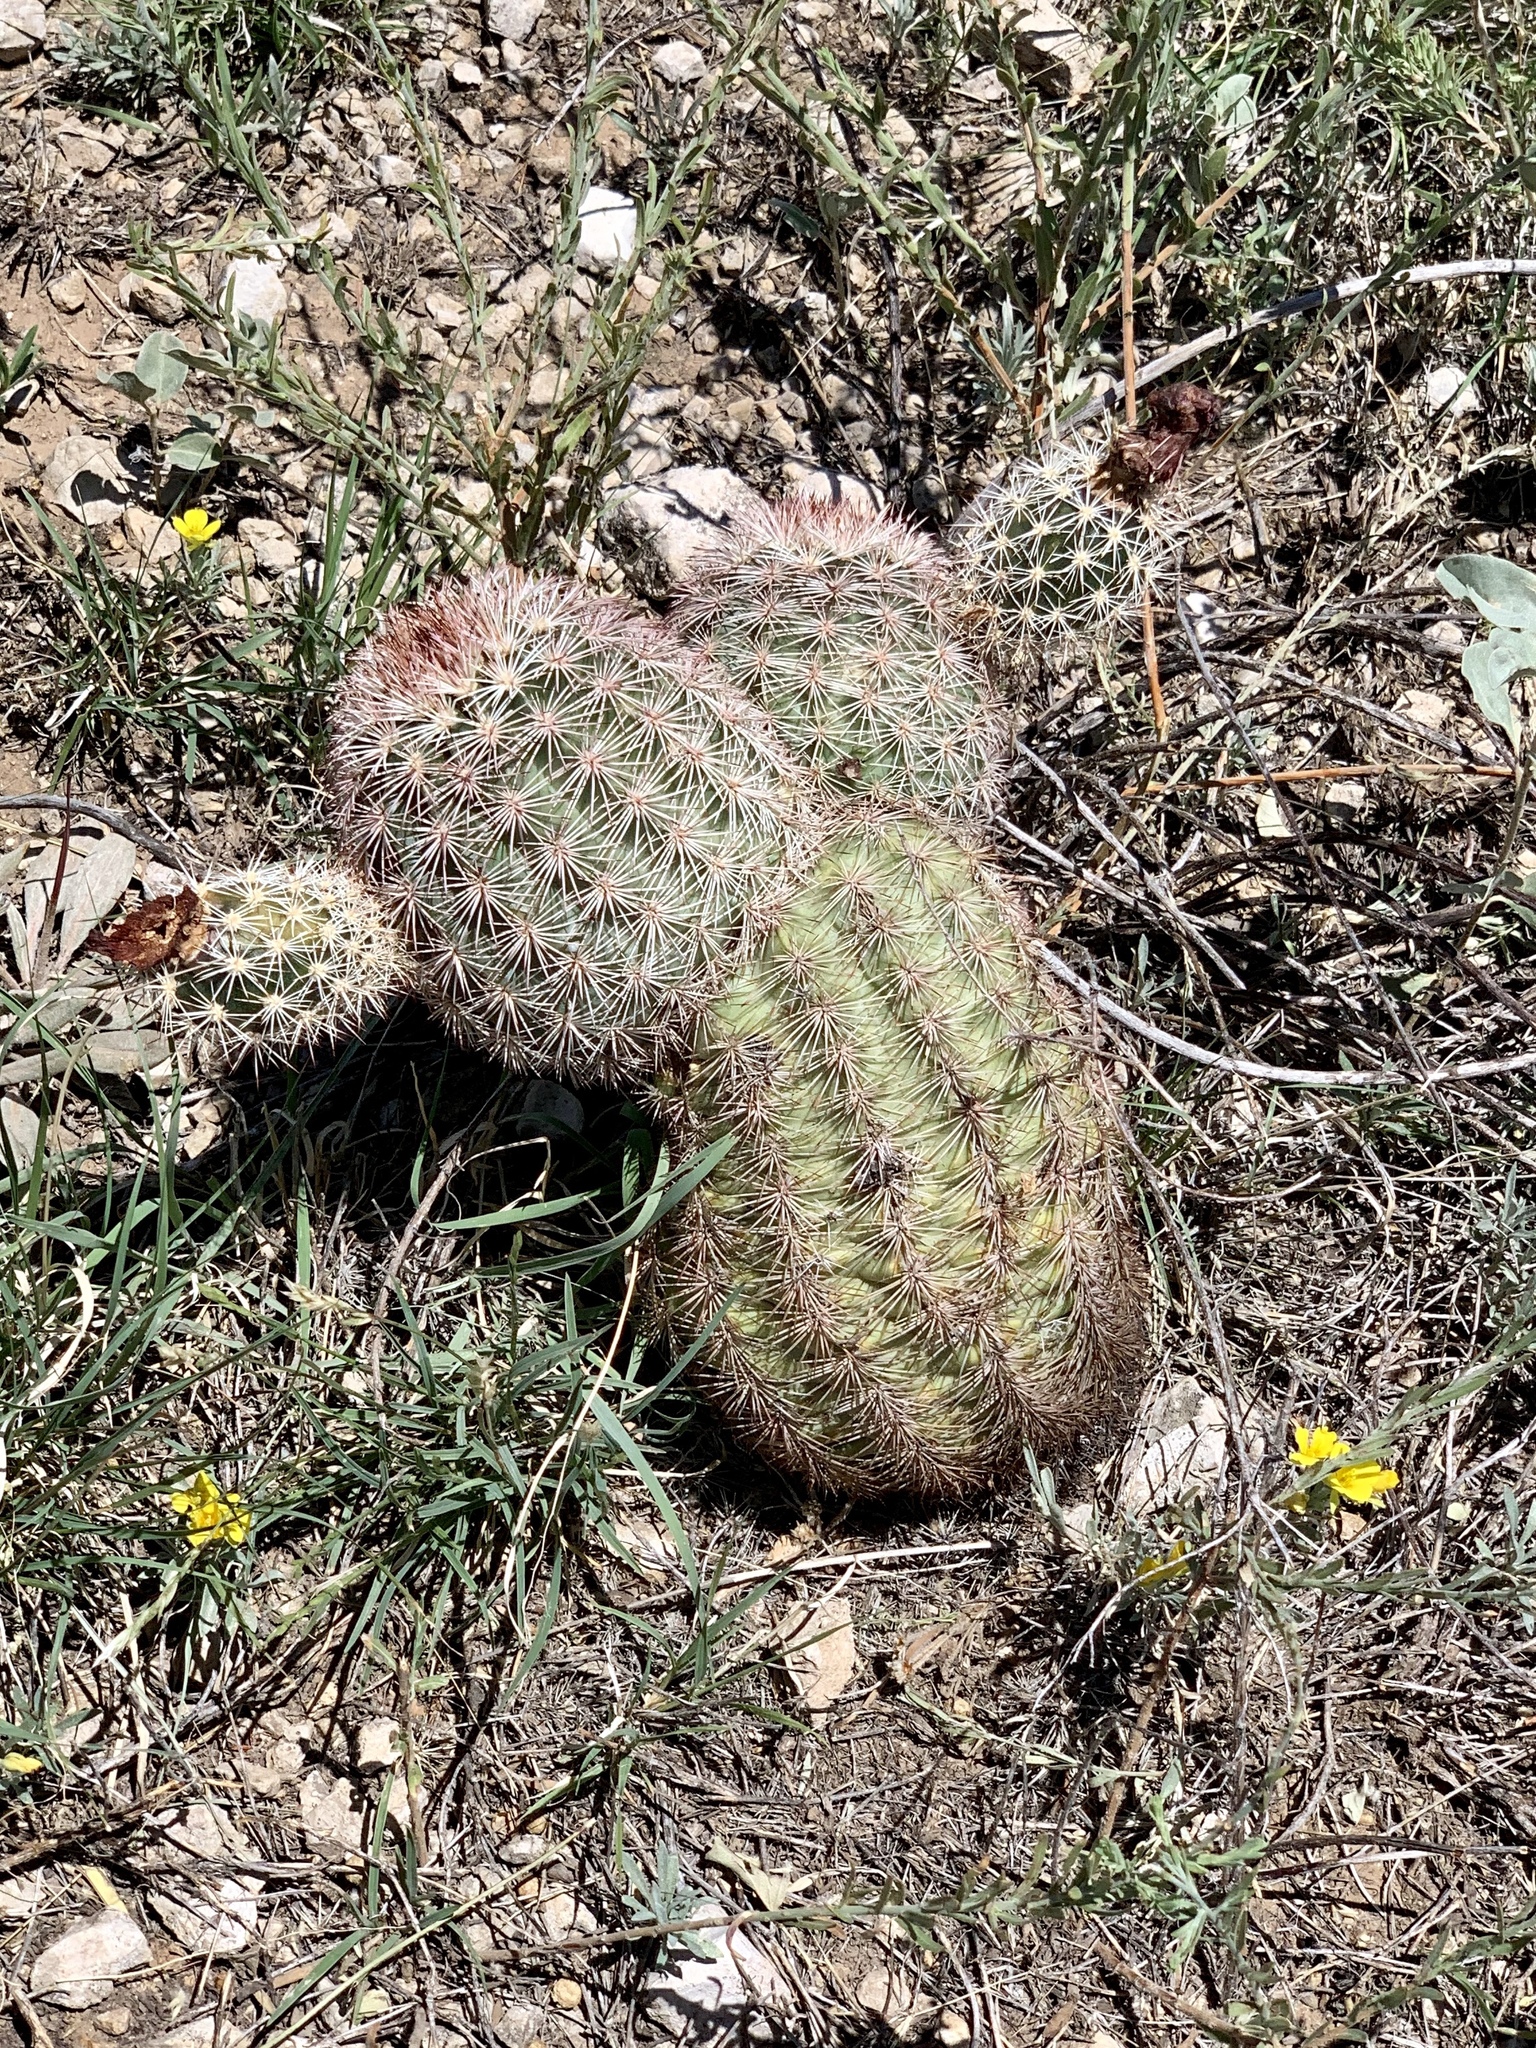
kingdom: Plantae
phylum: Tracheophyta
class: Magnoliopsida
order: Caryophyllales
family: Cactaceae
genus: Echinocereus
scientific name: Echinocereus dasyacanthus
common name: Spiny hedgehog cactus
